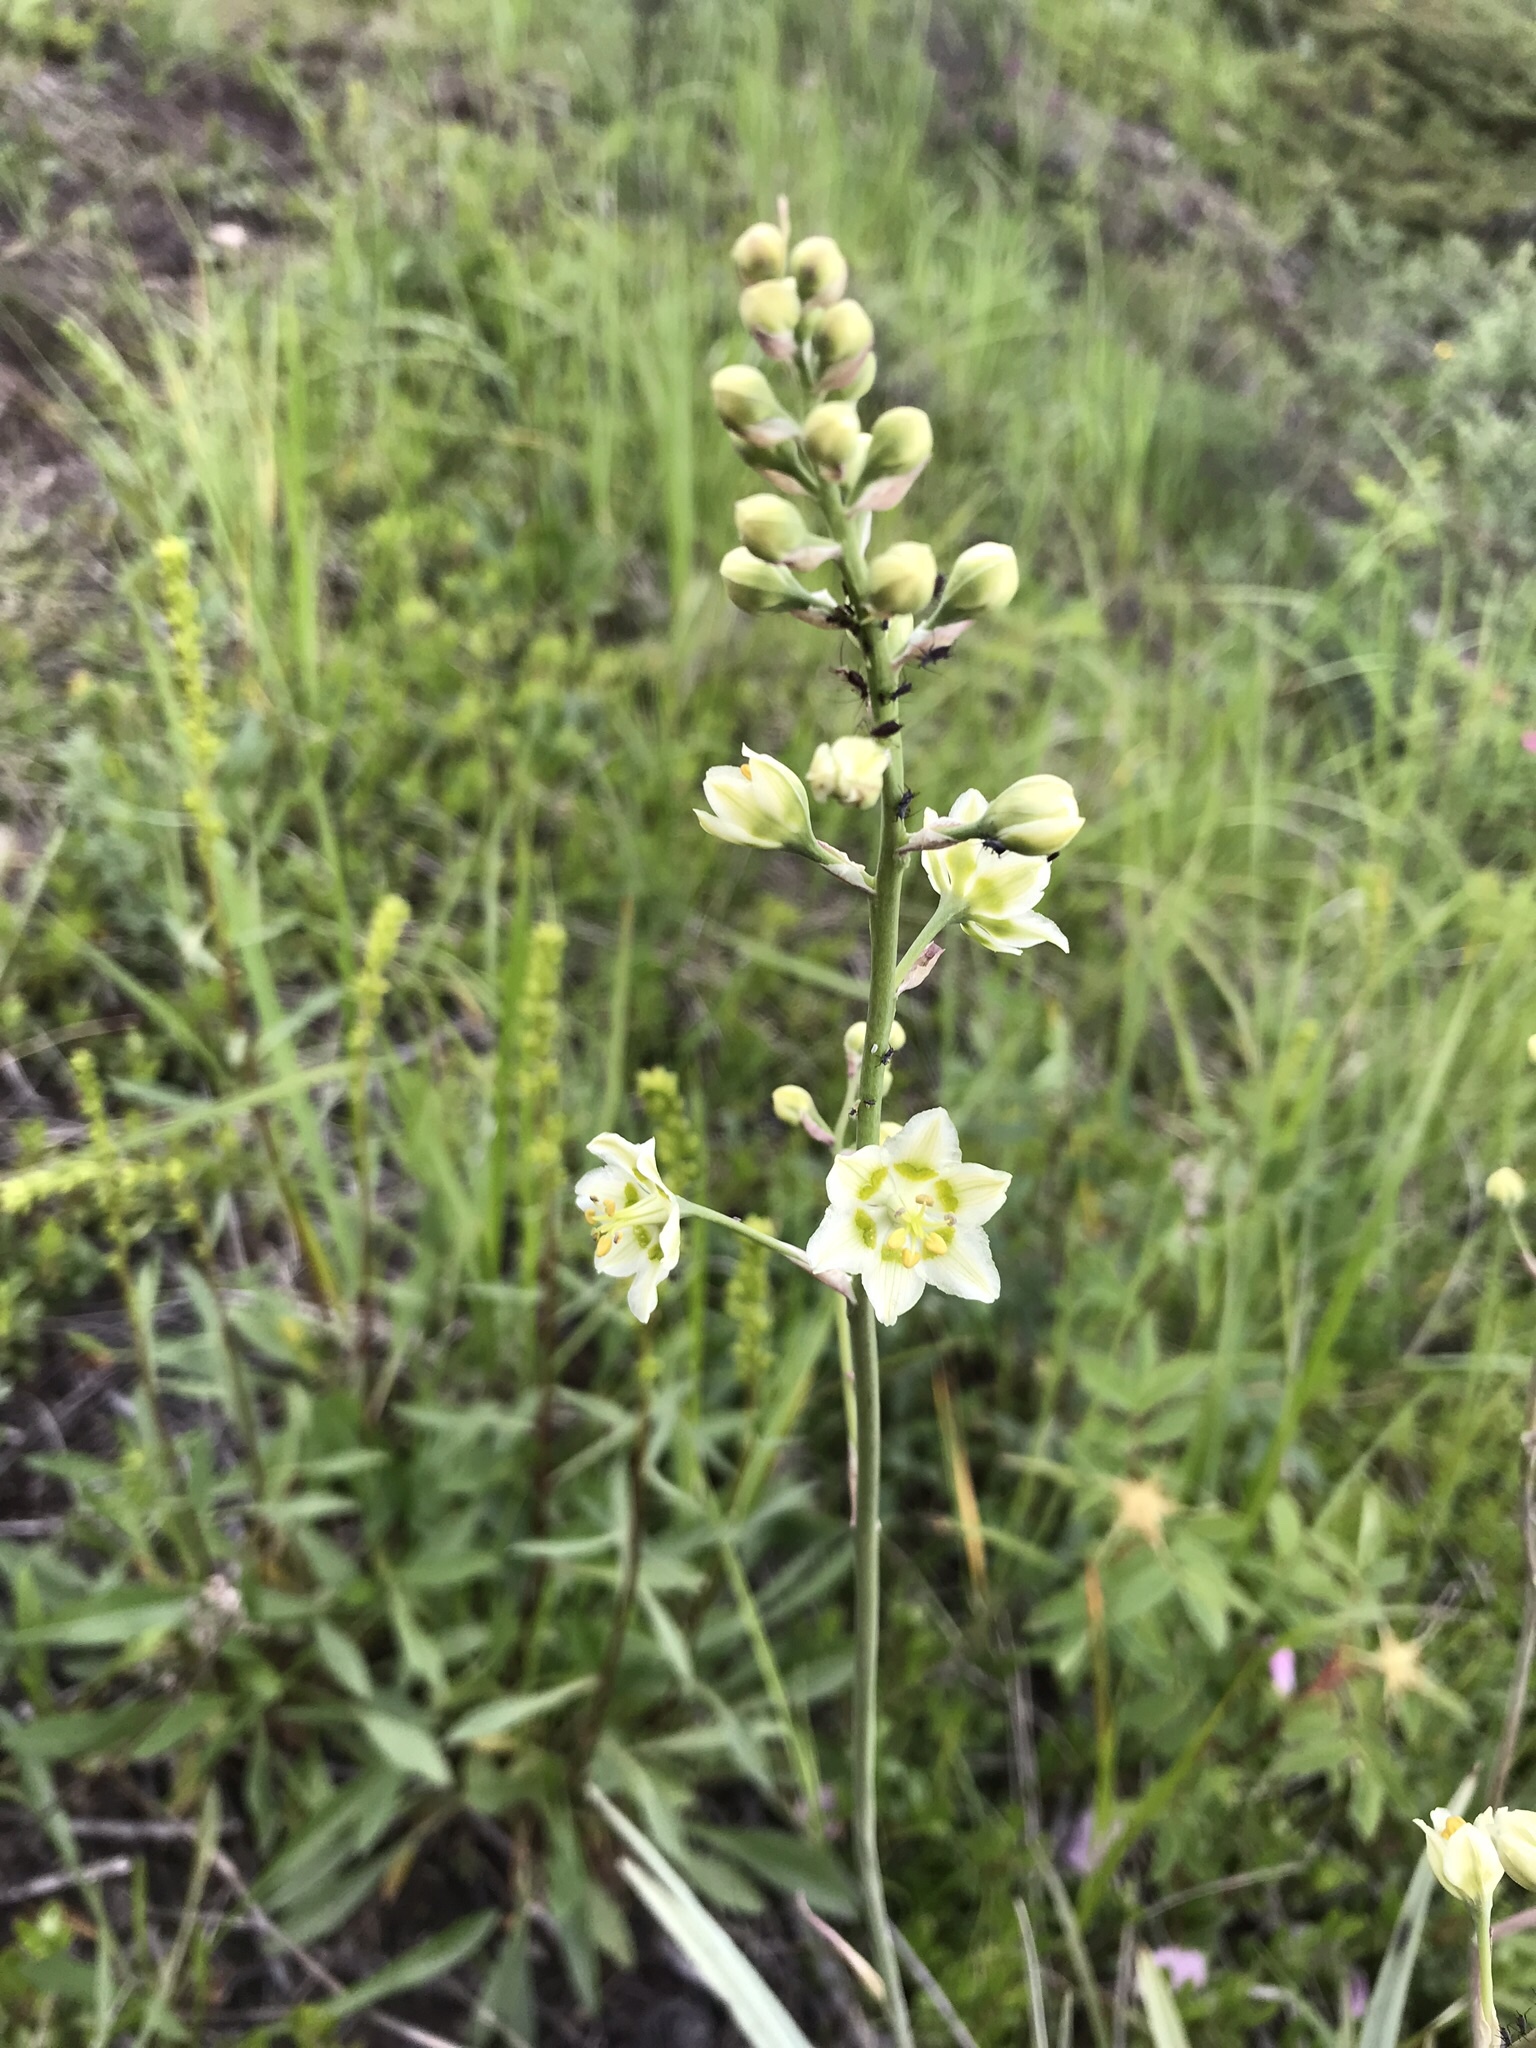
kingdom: Plantae
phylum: Tracheophyta
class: Liliopsida
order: Liliales
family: Melanthiaceae
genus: Anticlea
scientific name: Anticlea elegans
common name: Mountain death camas
